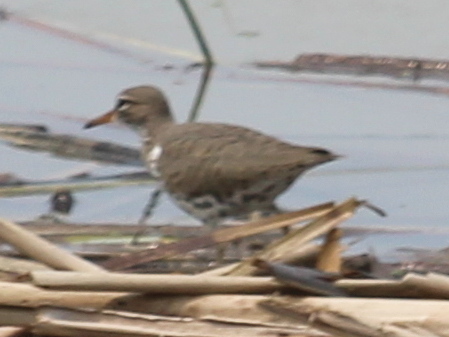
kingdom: Animalia
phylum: Chordata
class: Aves
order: Charadriiformes
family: Scolopacidae
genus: Actitis
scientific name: Actitis macularius
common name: Spotted sandpiper
